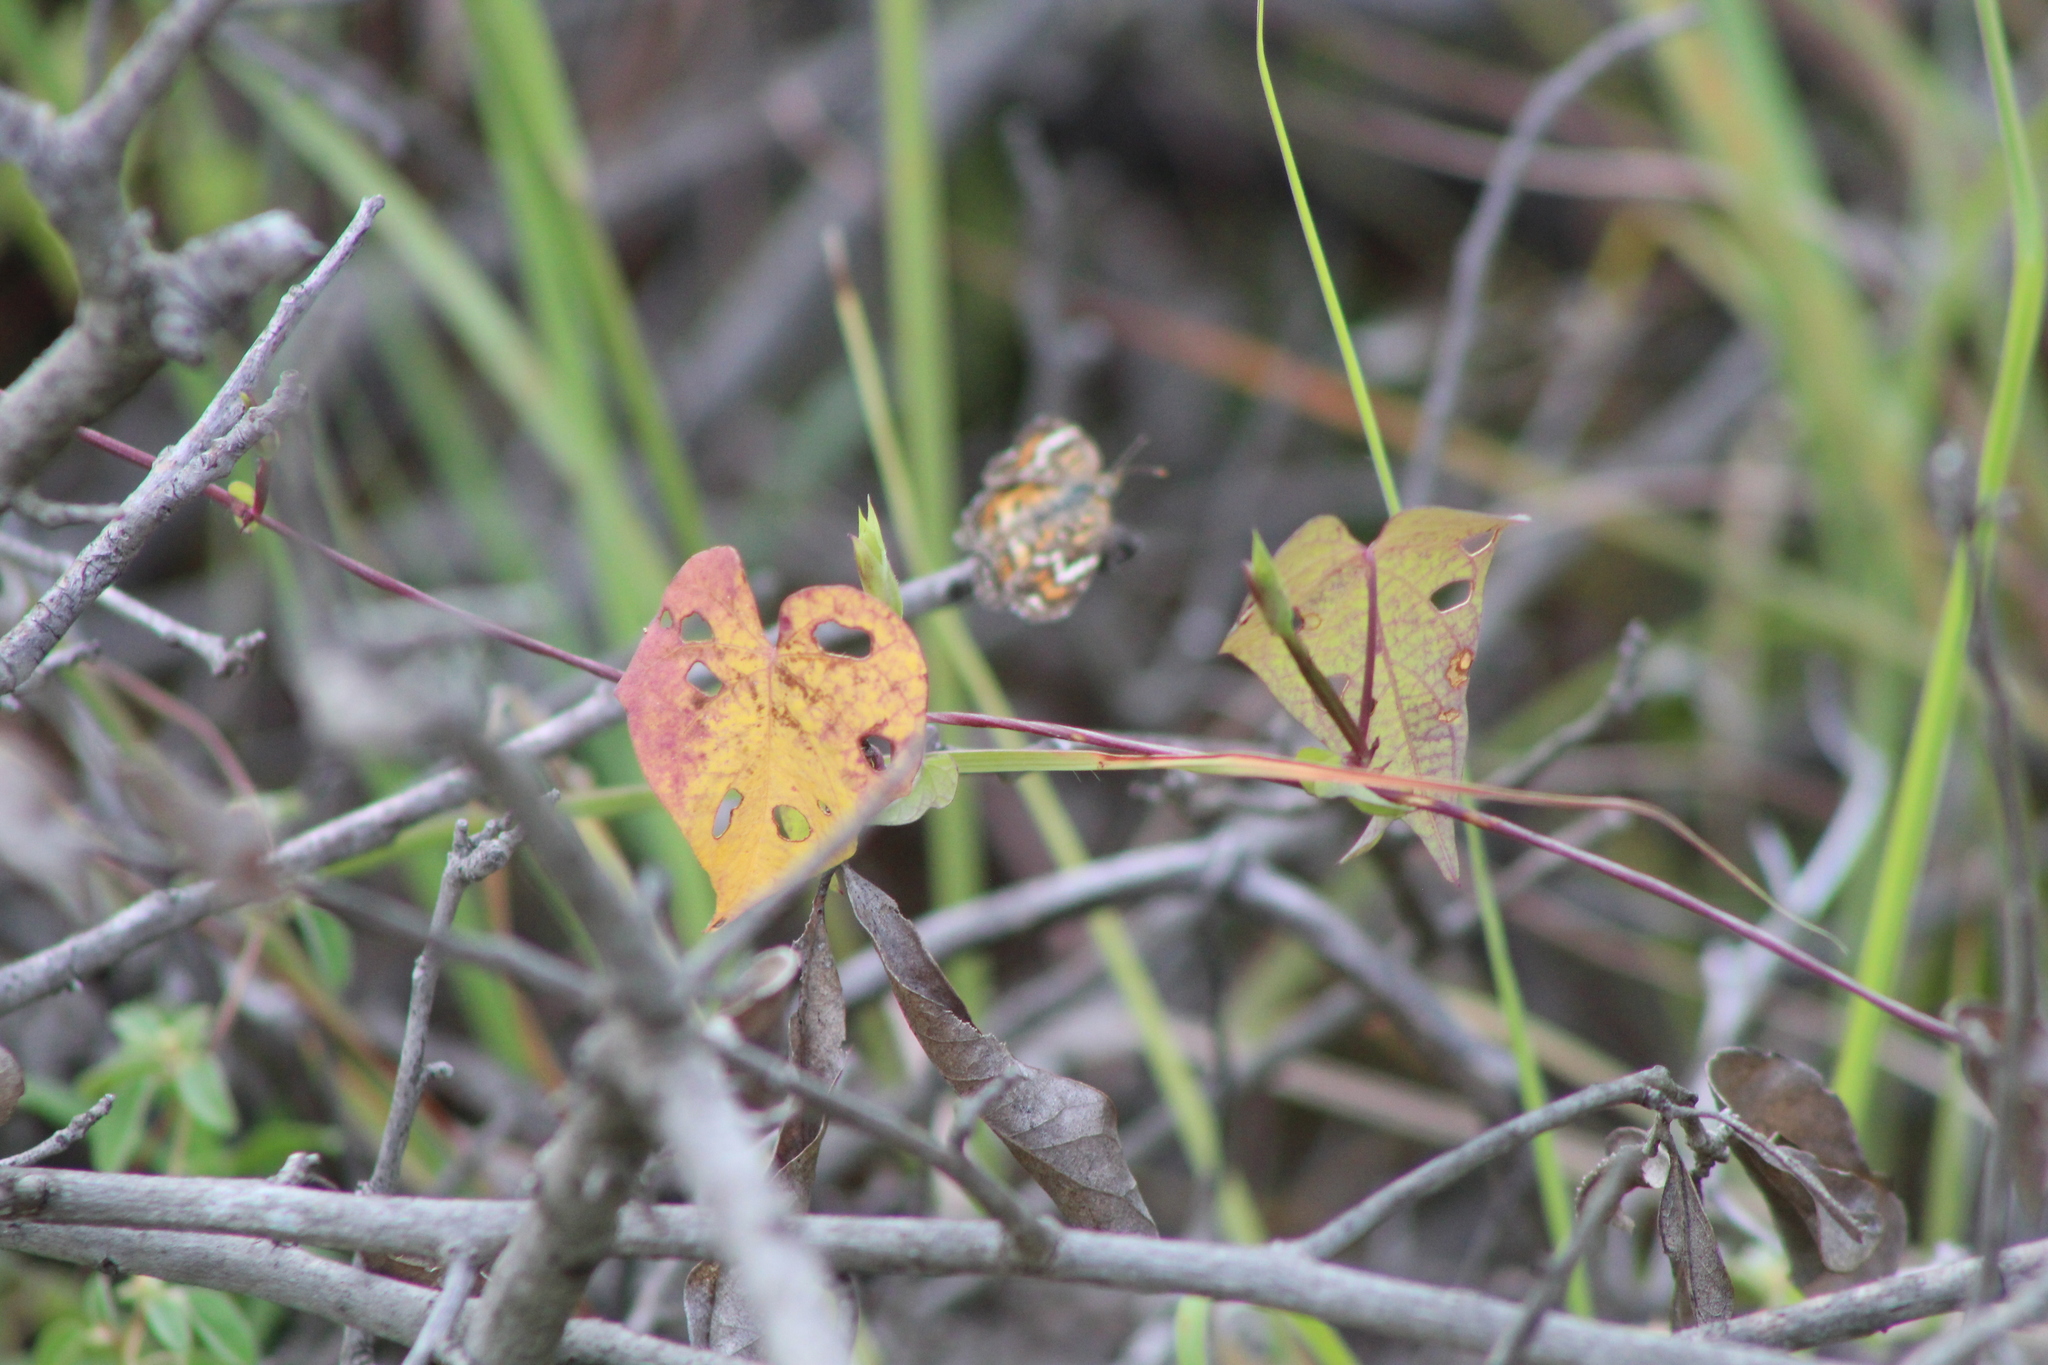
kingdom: Animalia
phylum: Arthropoda
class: Insecta
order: Lepidoptera
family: Nymphalidae
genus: Phyciodes
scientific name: Phyciodes phaon
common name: Phaon crescent
